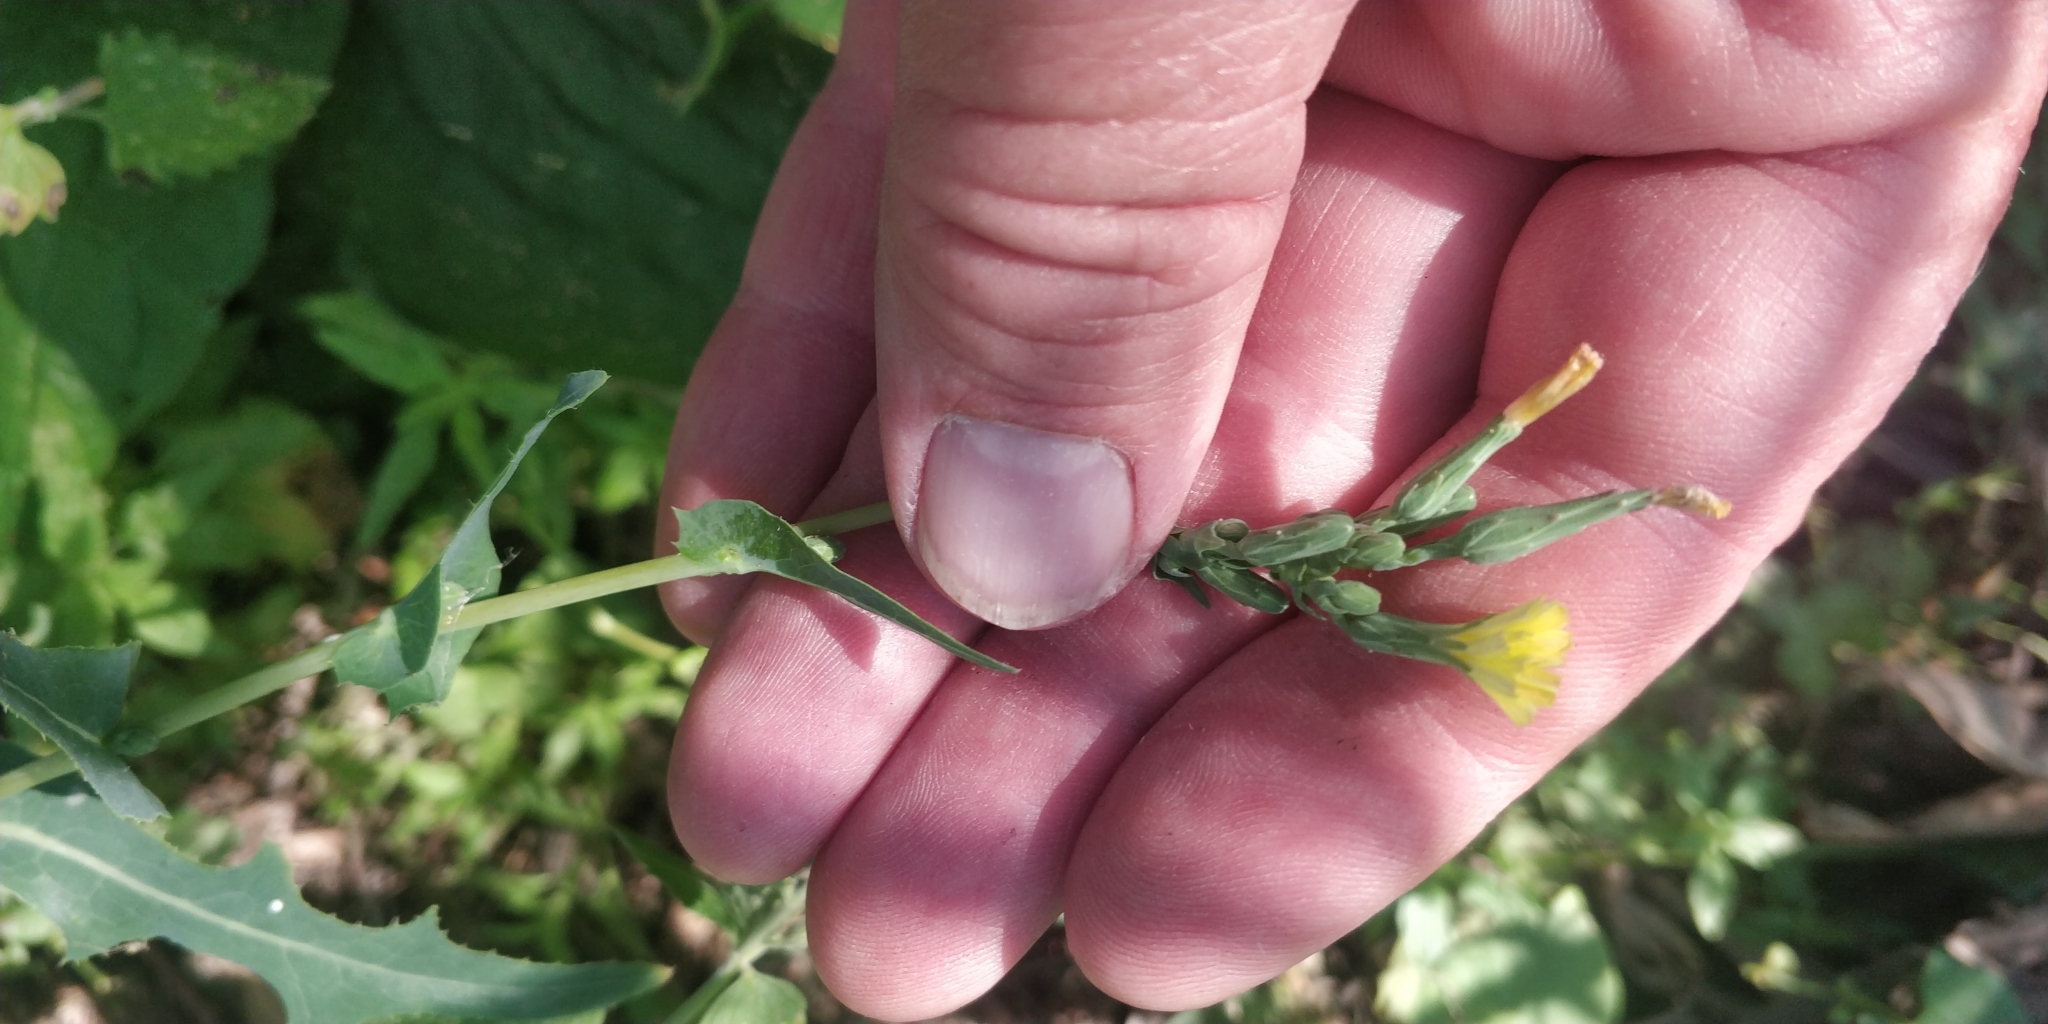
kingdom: Plantae
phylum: Tracheophyta
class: Magnoliopsida
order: Asterales
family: Asteraceae
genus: Lactuca
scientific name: Lactuca serriola
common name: Prickly lettuce
